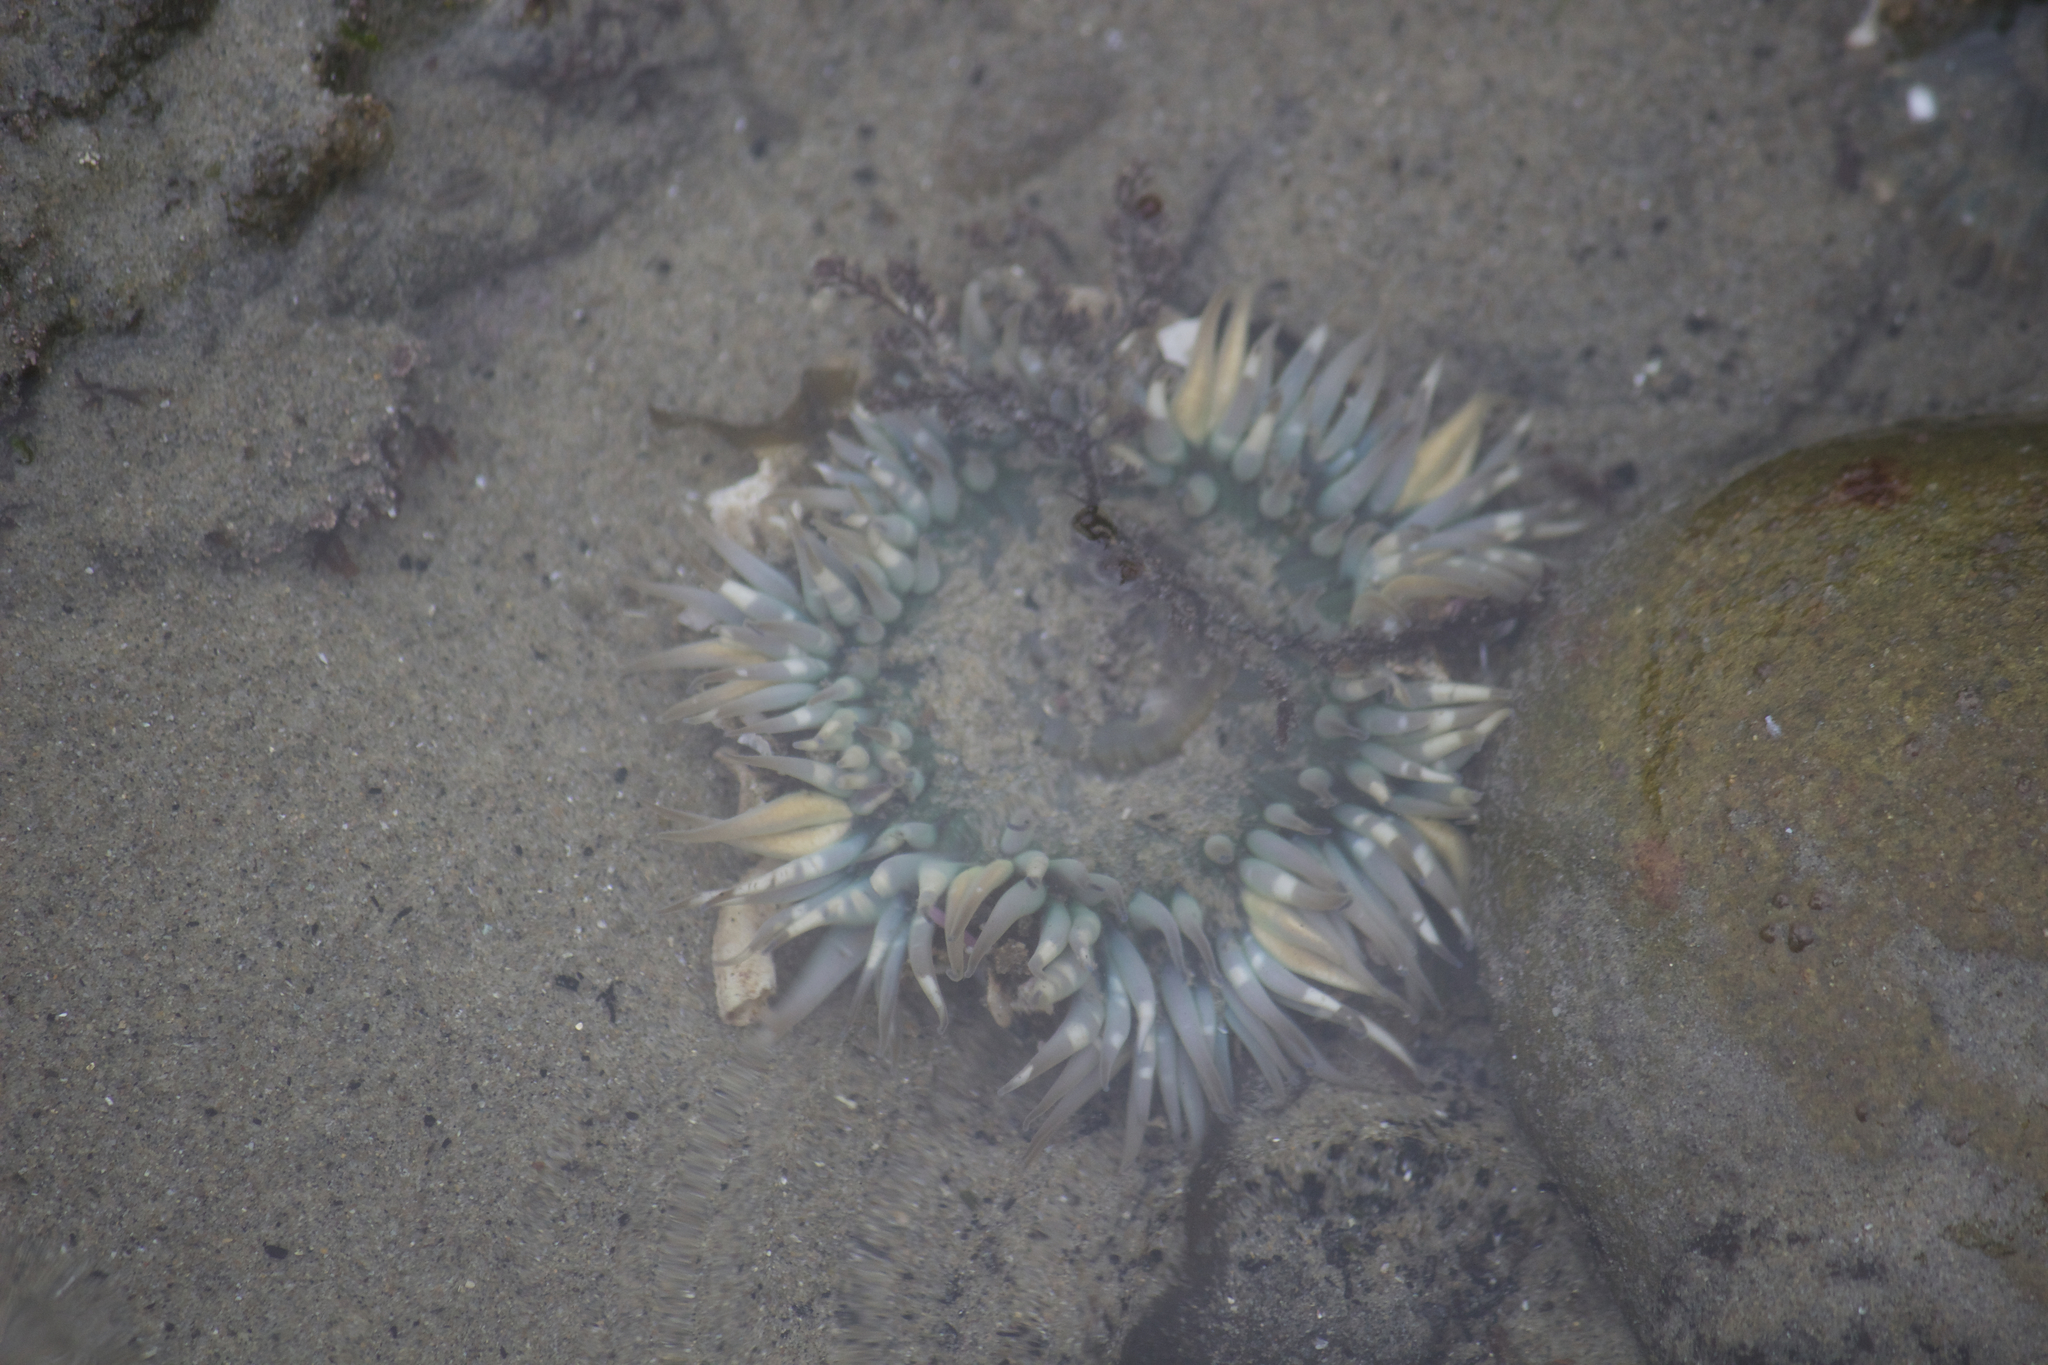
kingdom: Animalia
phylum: Cnidaria
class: Anthozoa
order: Actiniaria
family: Actiniidae
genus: Anthopleura
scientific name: Anthopleura sola
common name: Sun anemone
